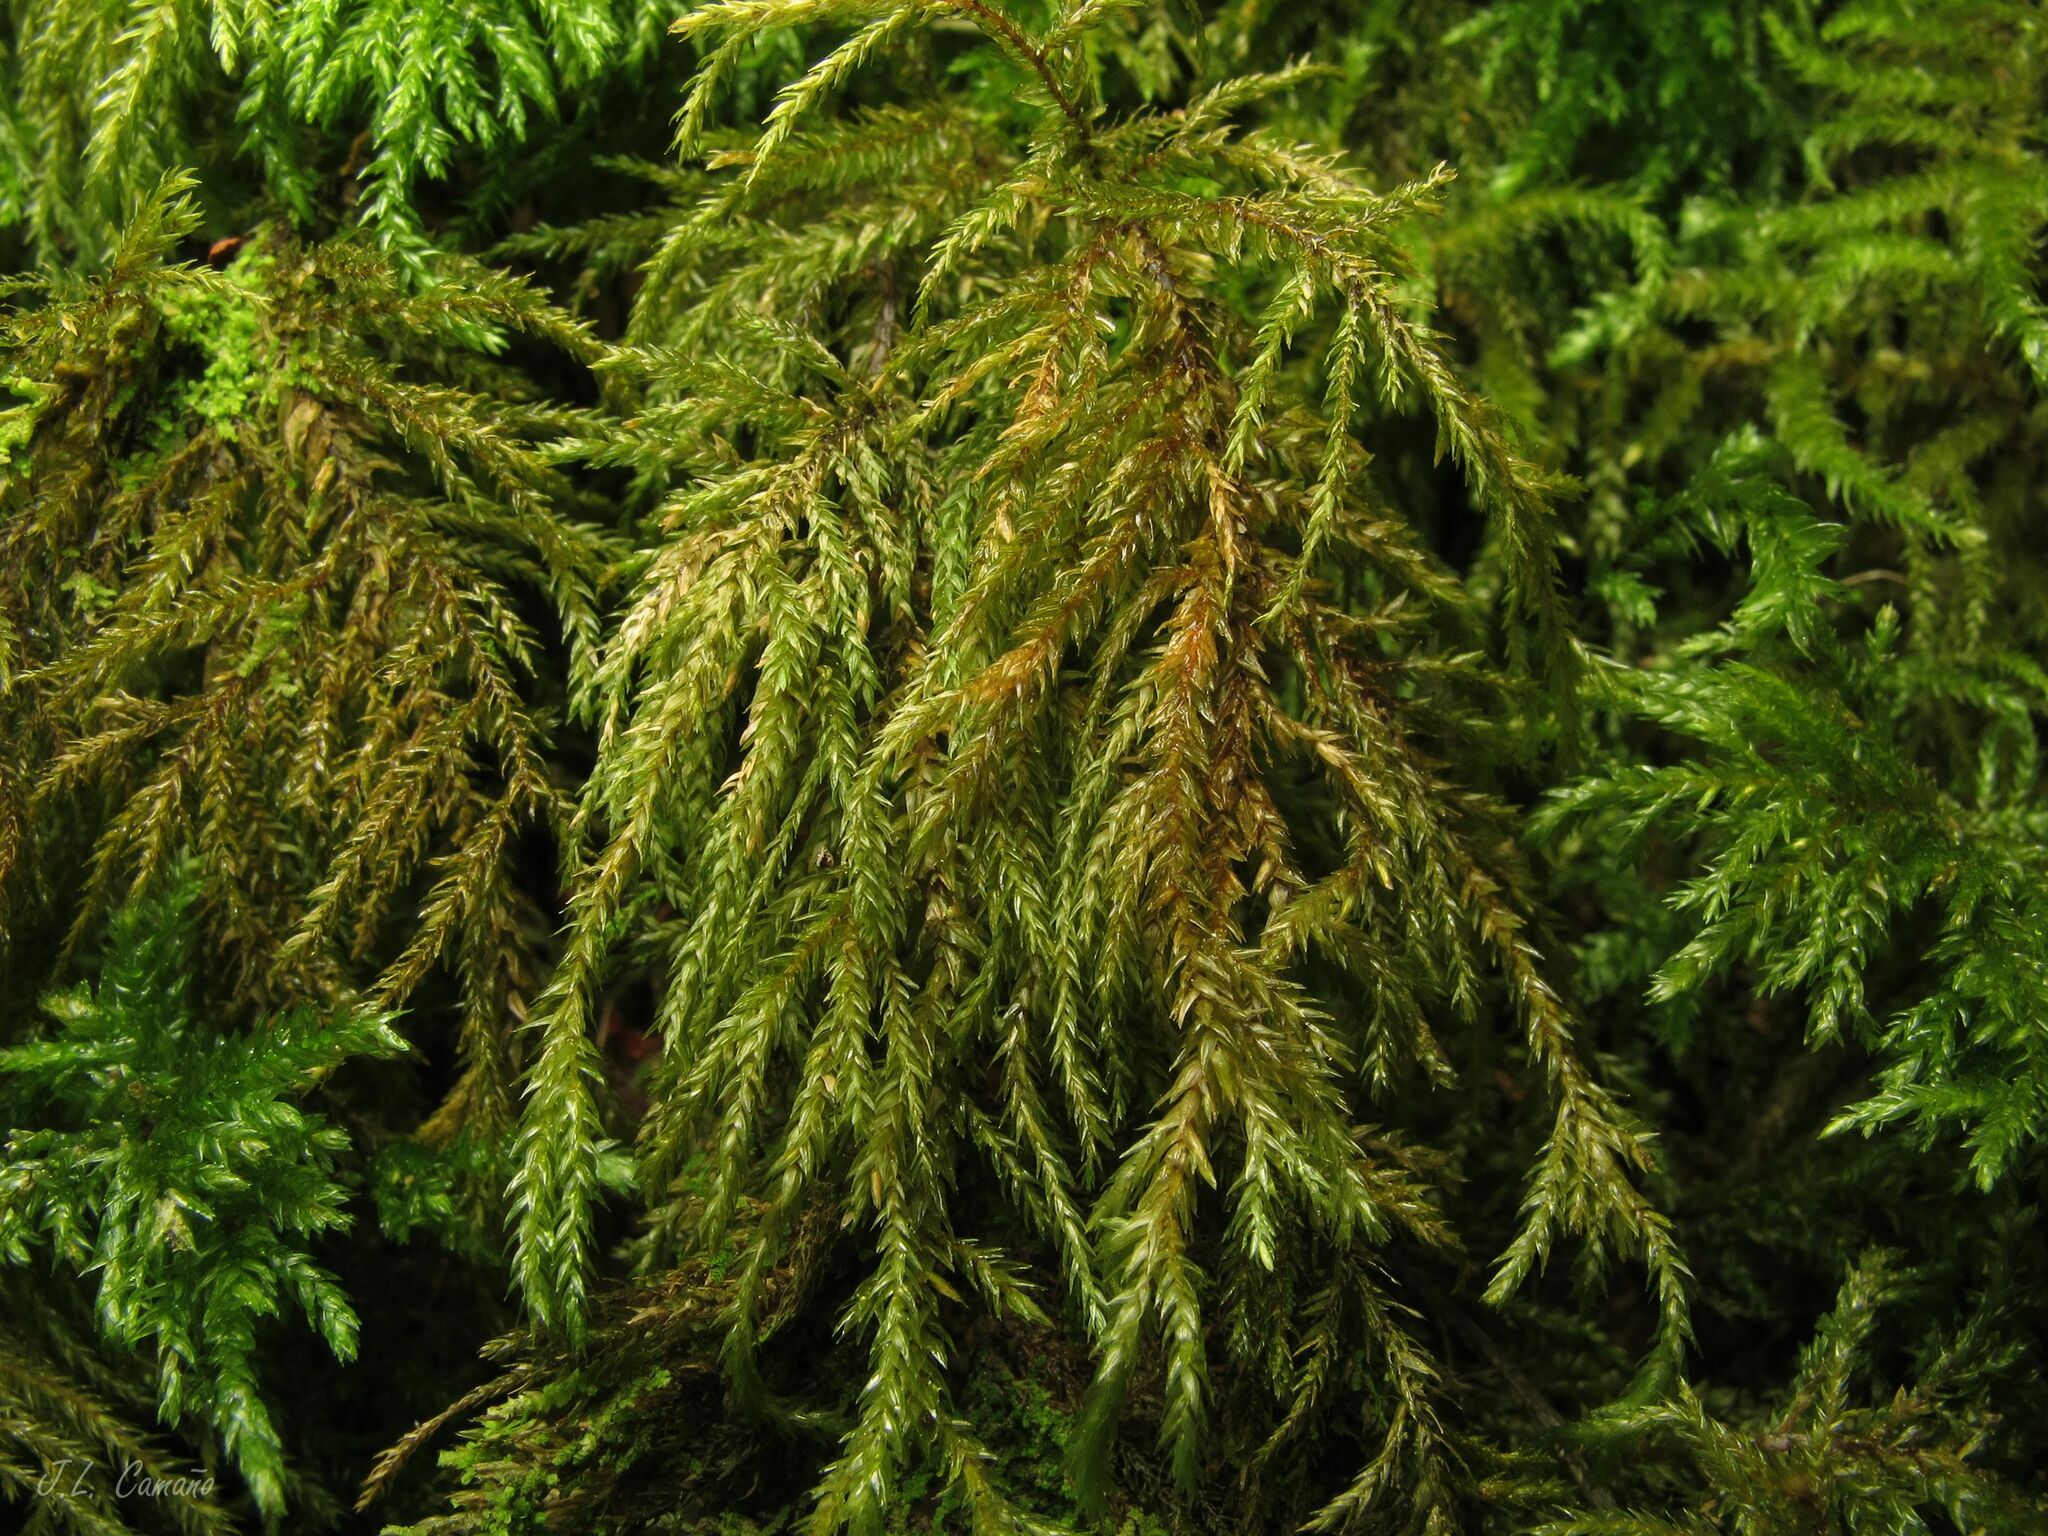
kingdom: Plantae
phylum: Bryophyta
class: Bryopsida
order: Hypnales
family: Neckeraceae
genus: Thamnobryum
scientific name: Thamnobryum alopecurum
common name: Fox-tail feather-moss
